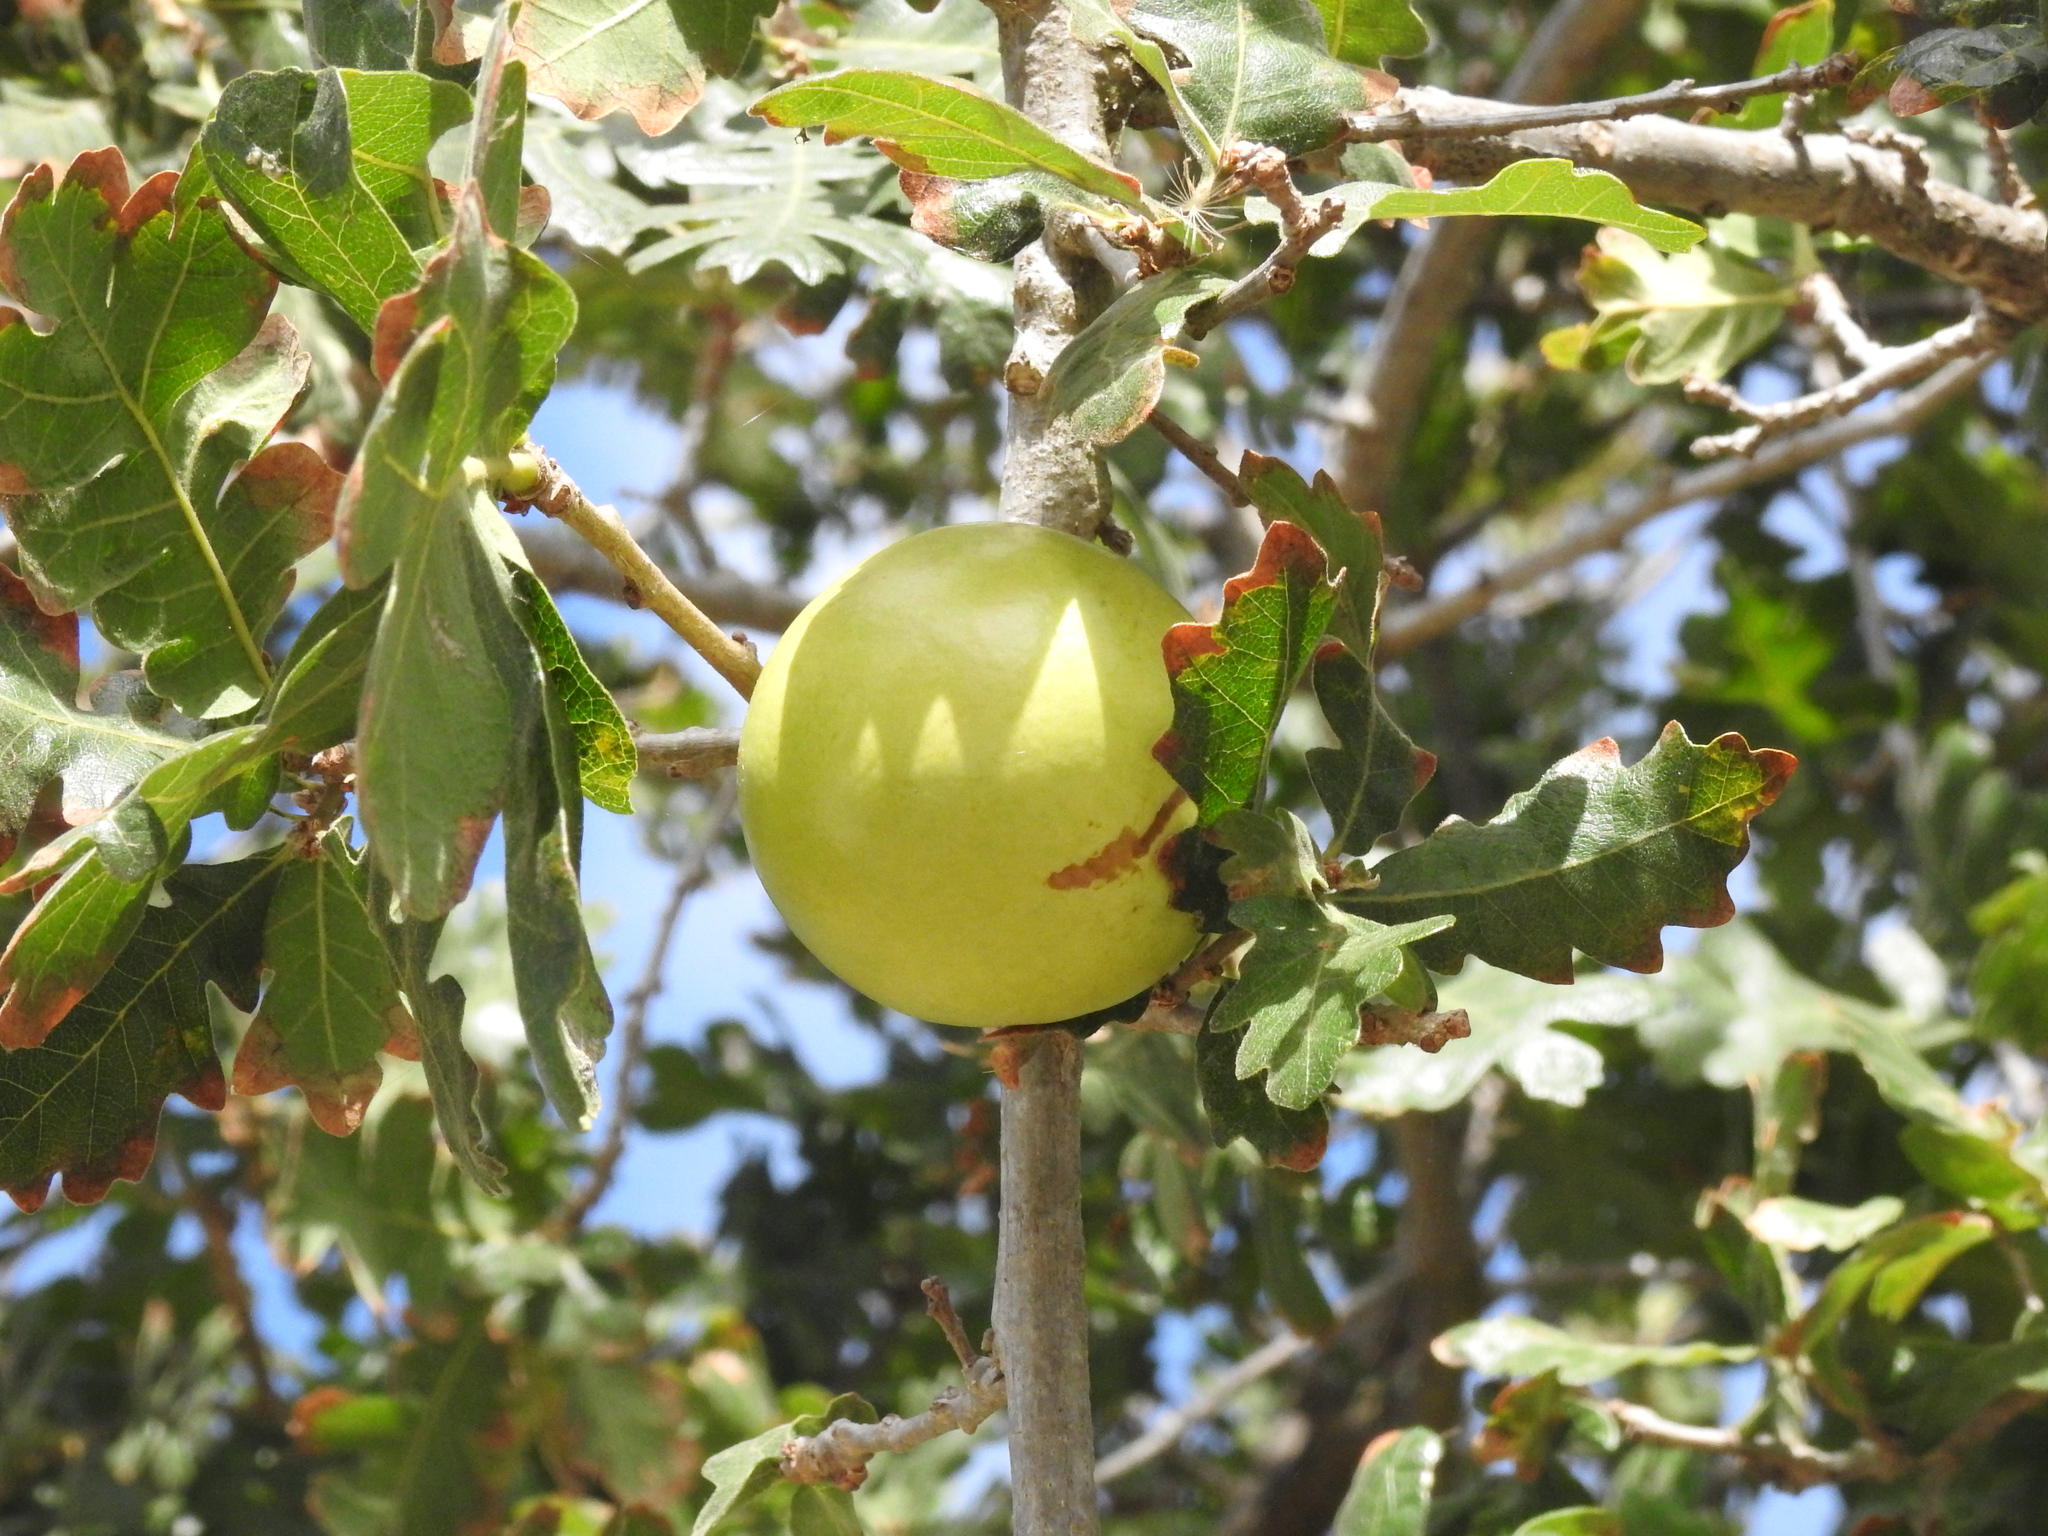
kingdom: Animalia
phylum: Arthropoda
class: Insecta
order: Hymenoptera
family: Cynipidae
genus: Andricus
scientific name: Andricus quercuscalifornicus
